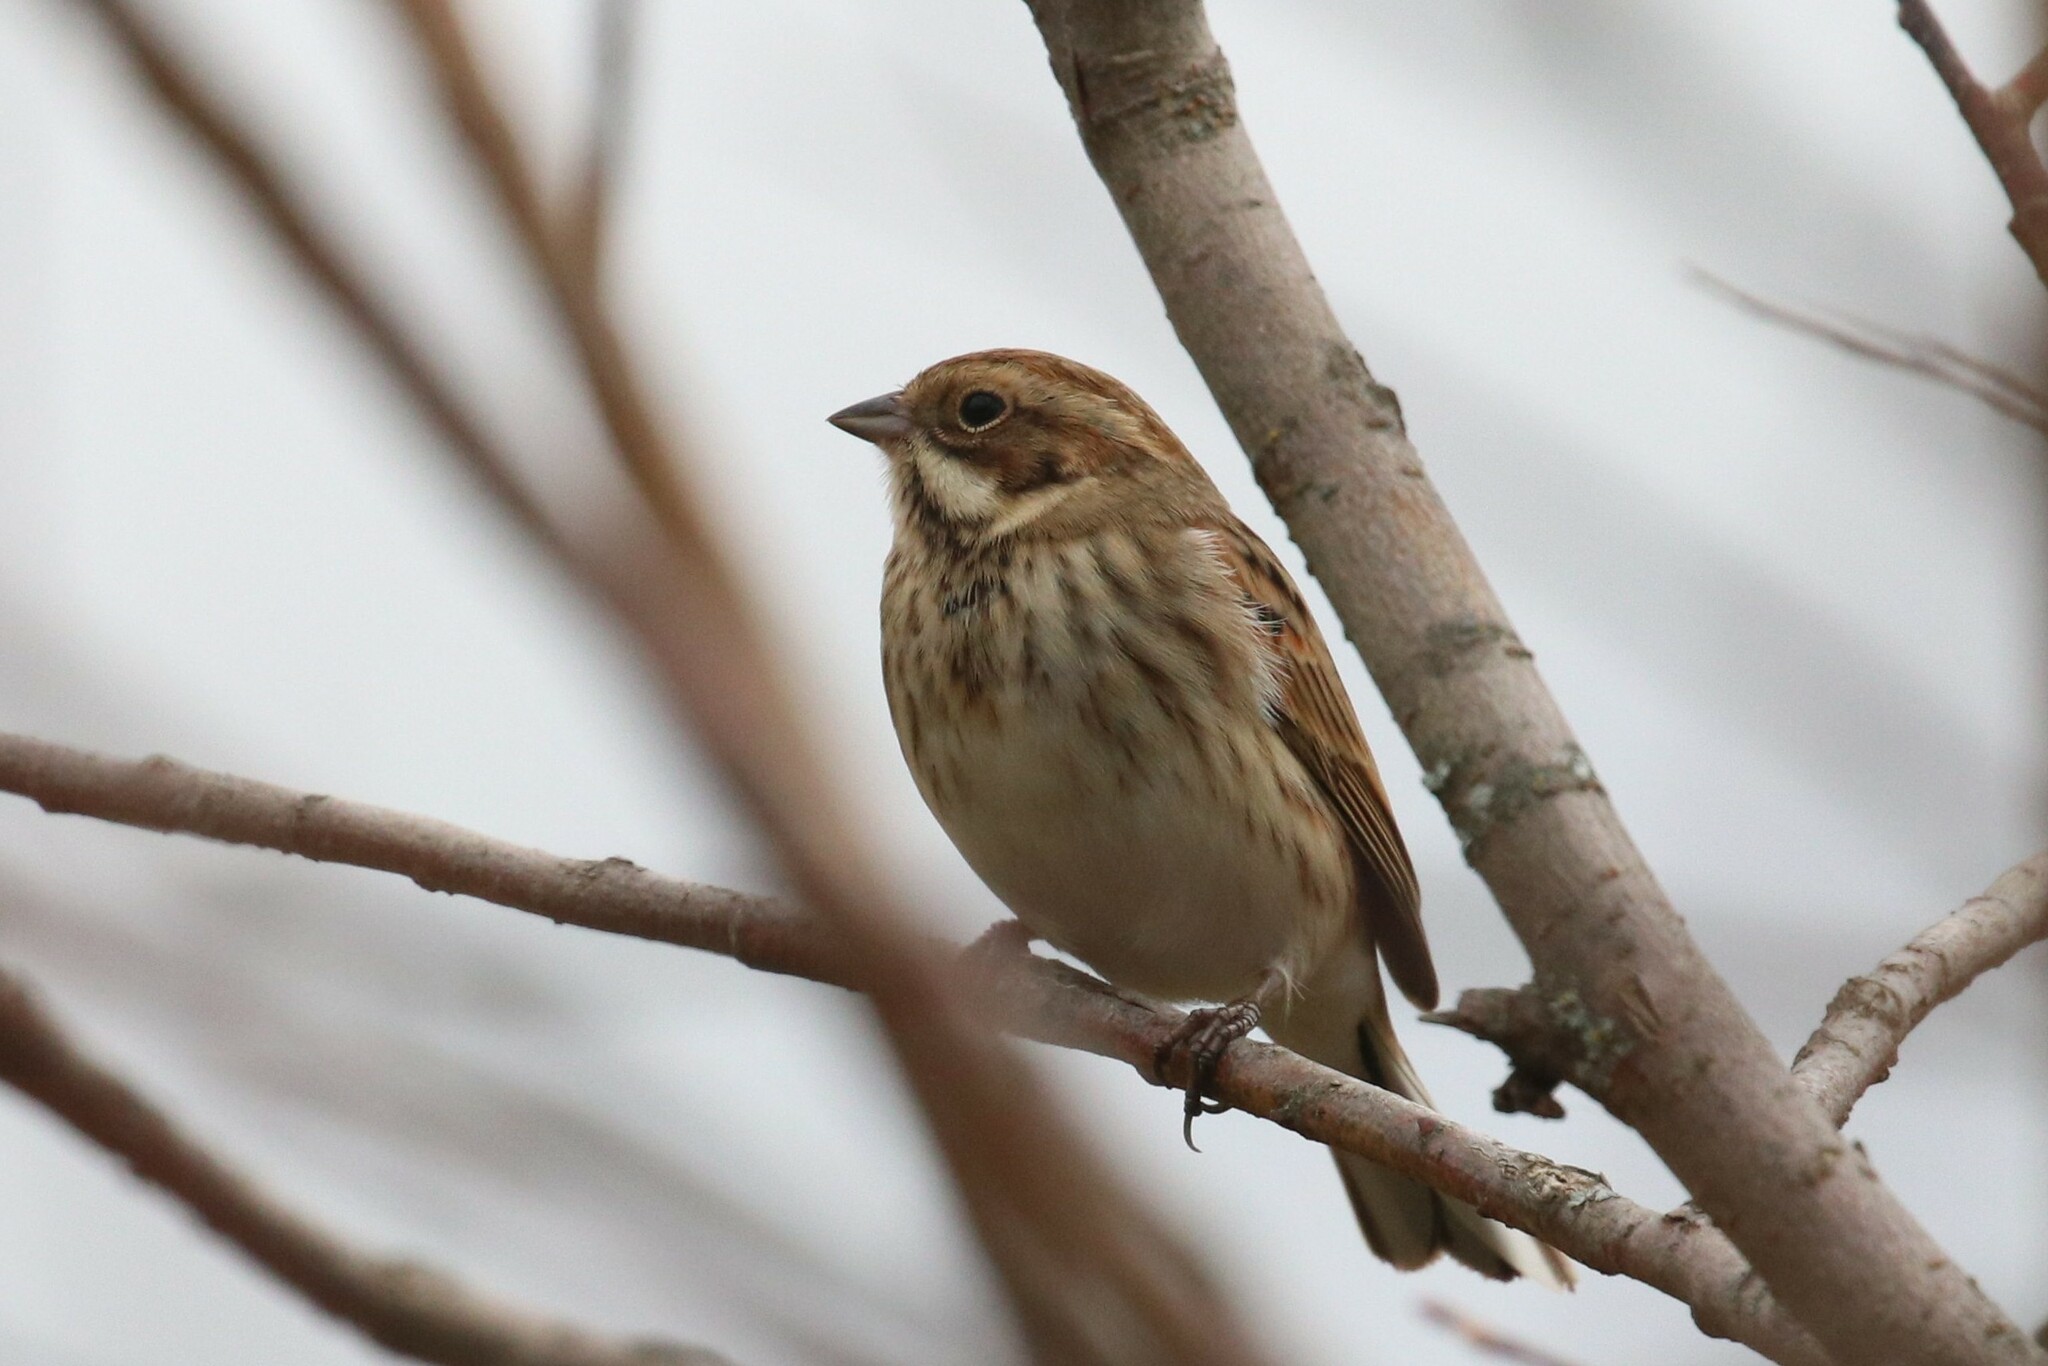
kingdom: Animalia
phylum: Chordata
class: Aves
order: Passeriformes
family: Emberizidae
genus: Emberiza
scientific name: Emberiza schoeniclus
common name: Reed bunting
